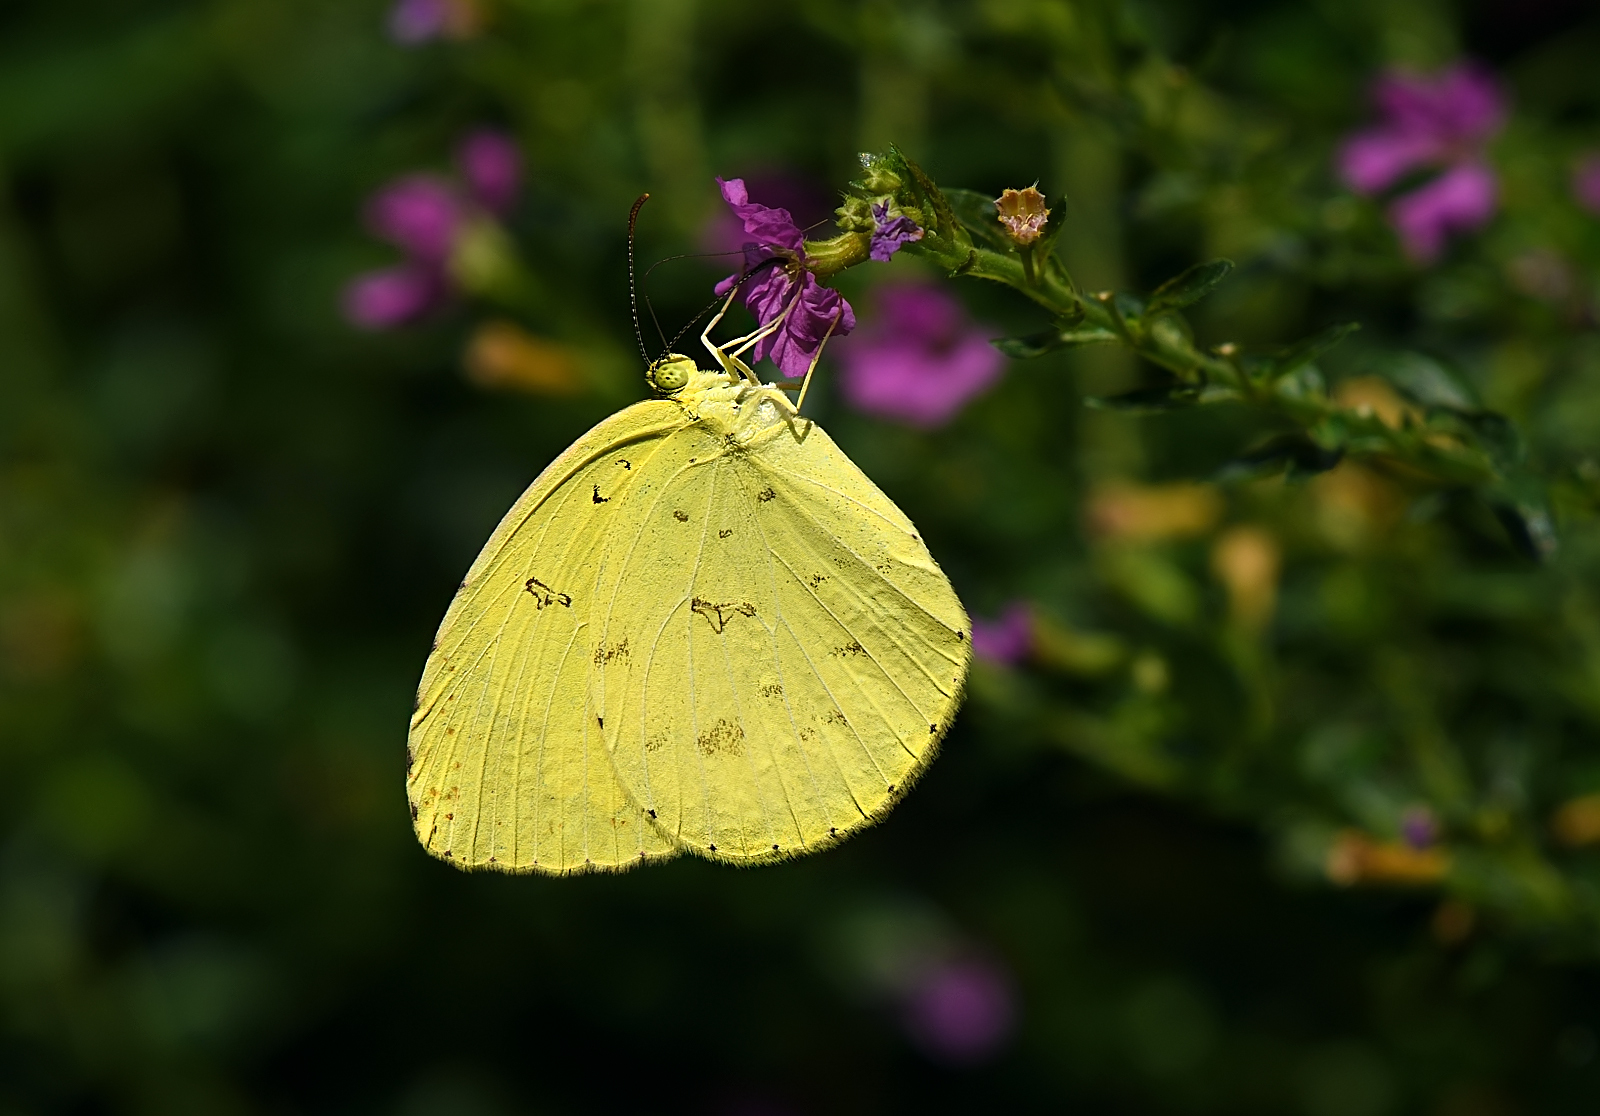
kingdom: Animalia
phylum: Arthropoda
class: Insecta
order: Lepidoptera
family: Pieridae
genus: Eurema
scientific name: Eurema hecabe
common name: Pale grass yellow
